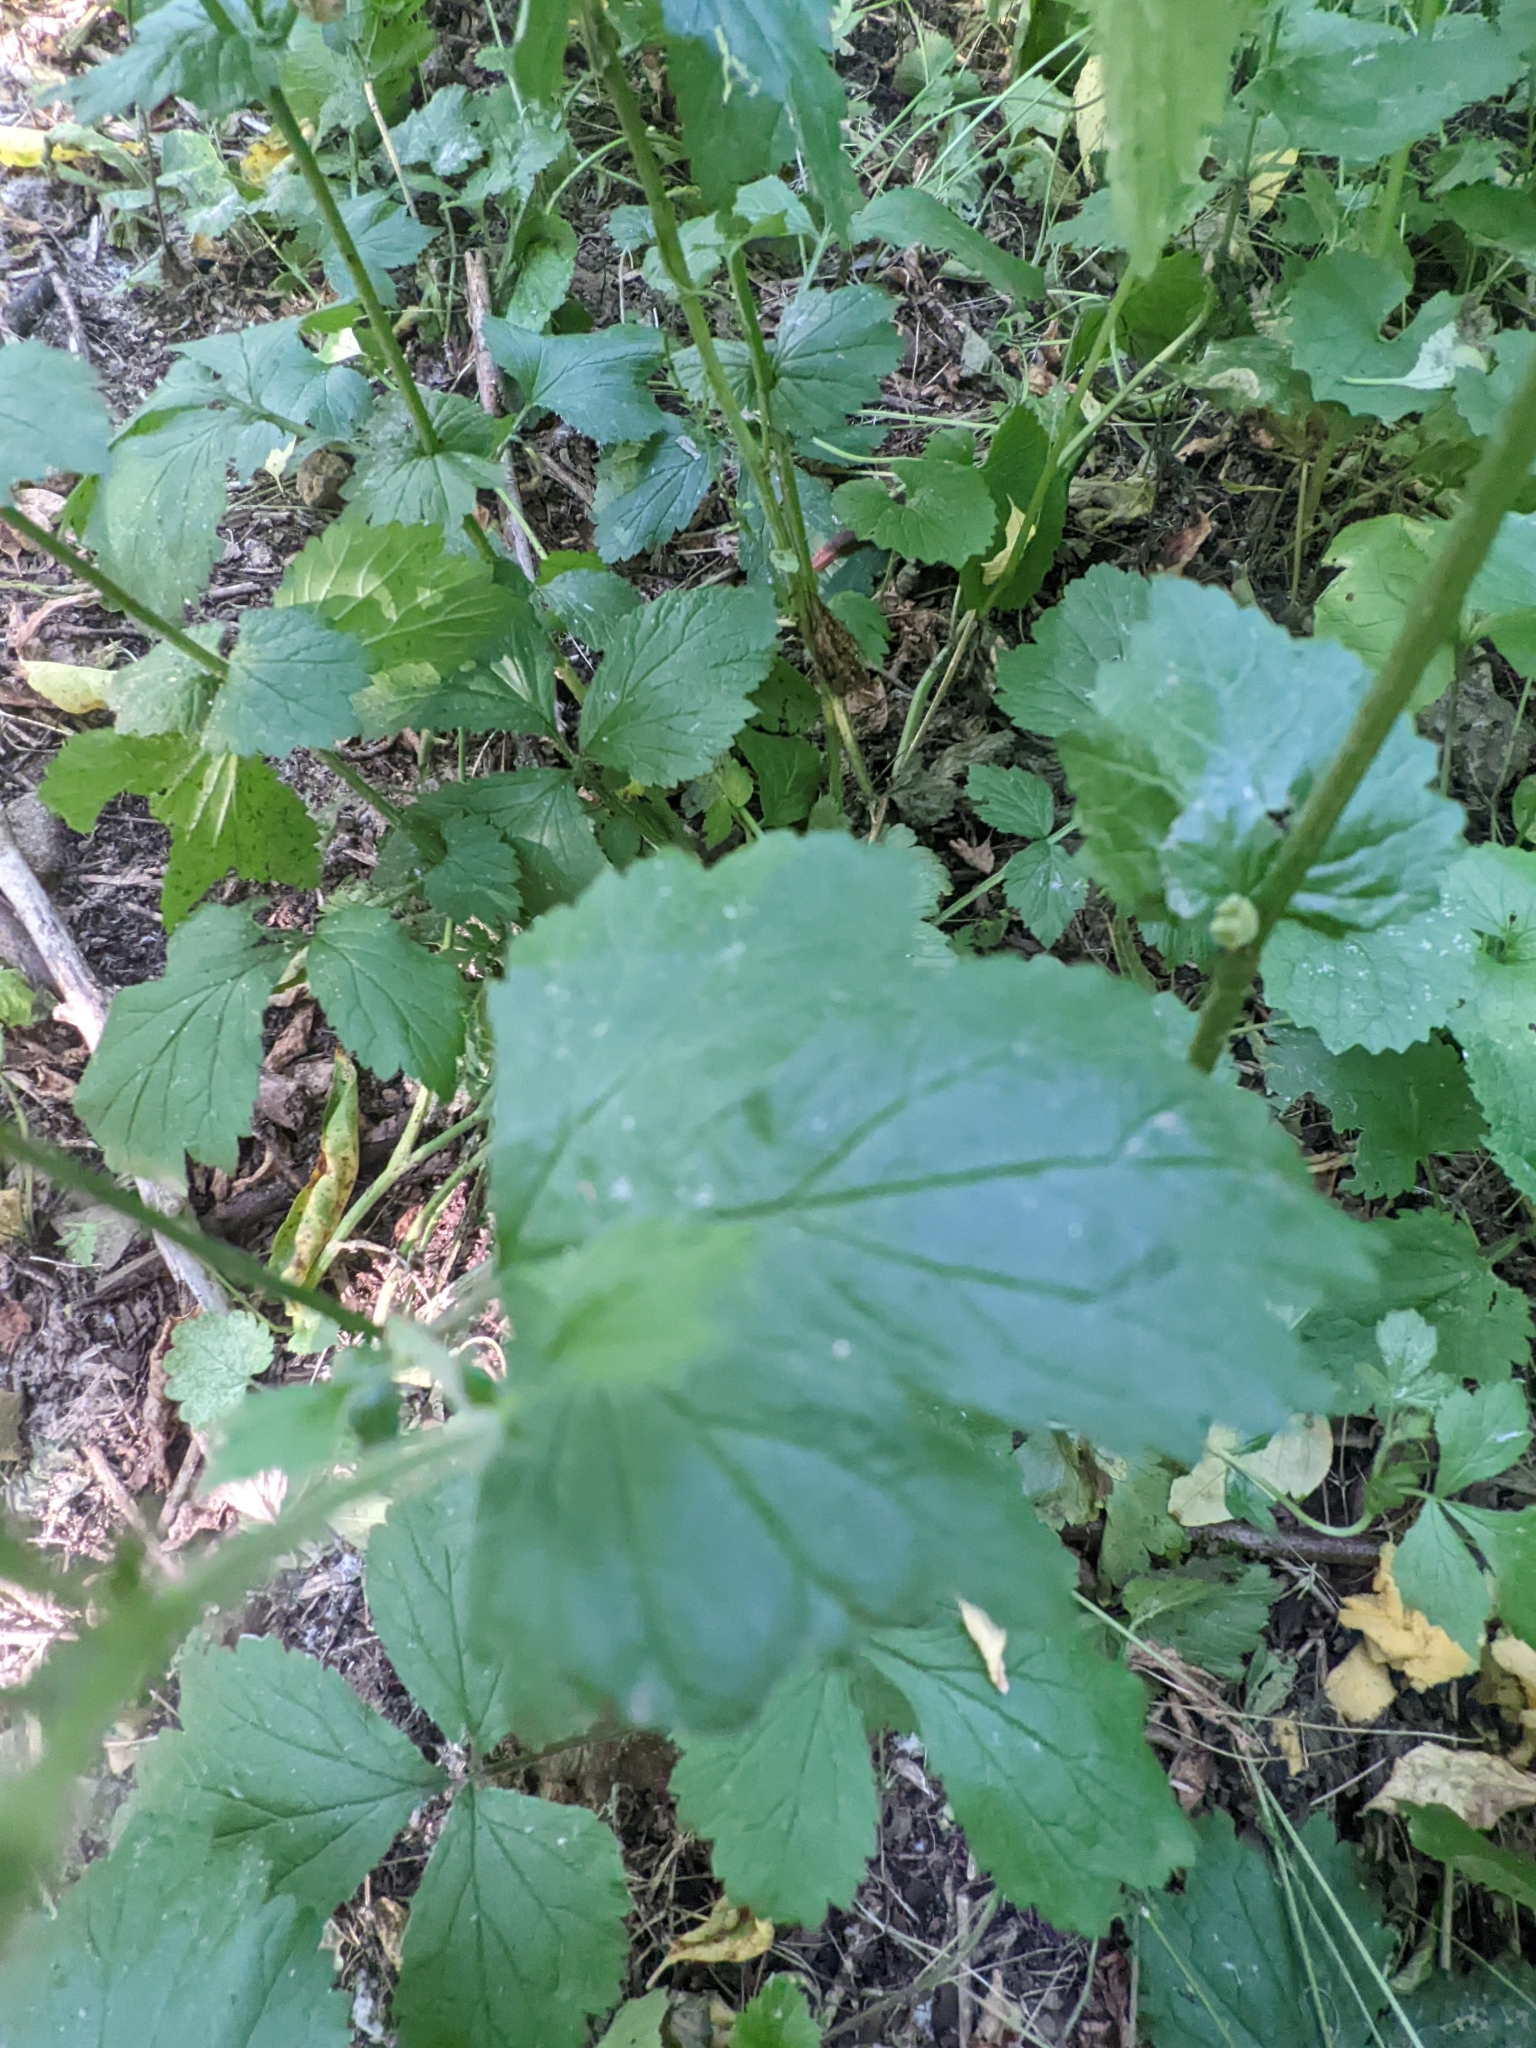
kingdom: Plantae
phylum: Tracheophyta
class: Magnoliopsida
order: Rosales
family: Rosaceae
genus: Geum
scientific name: Geum urbanum
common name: Wood avens
